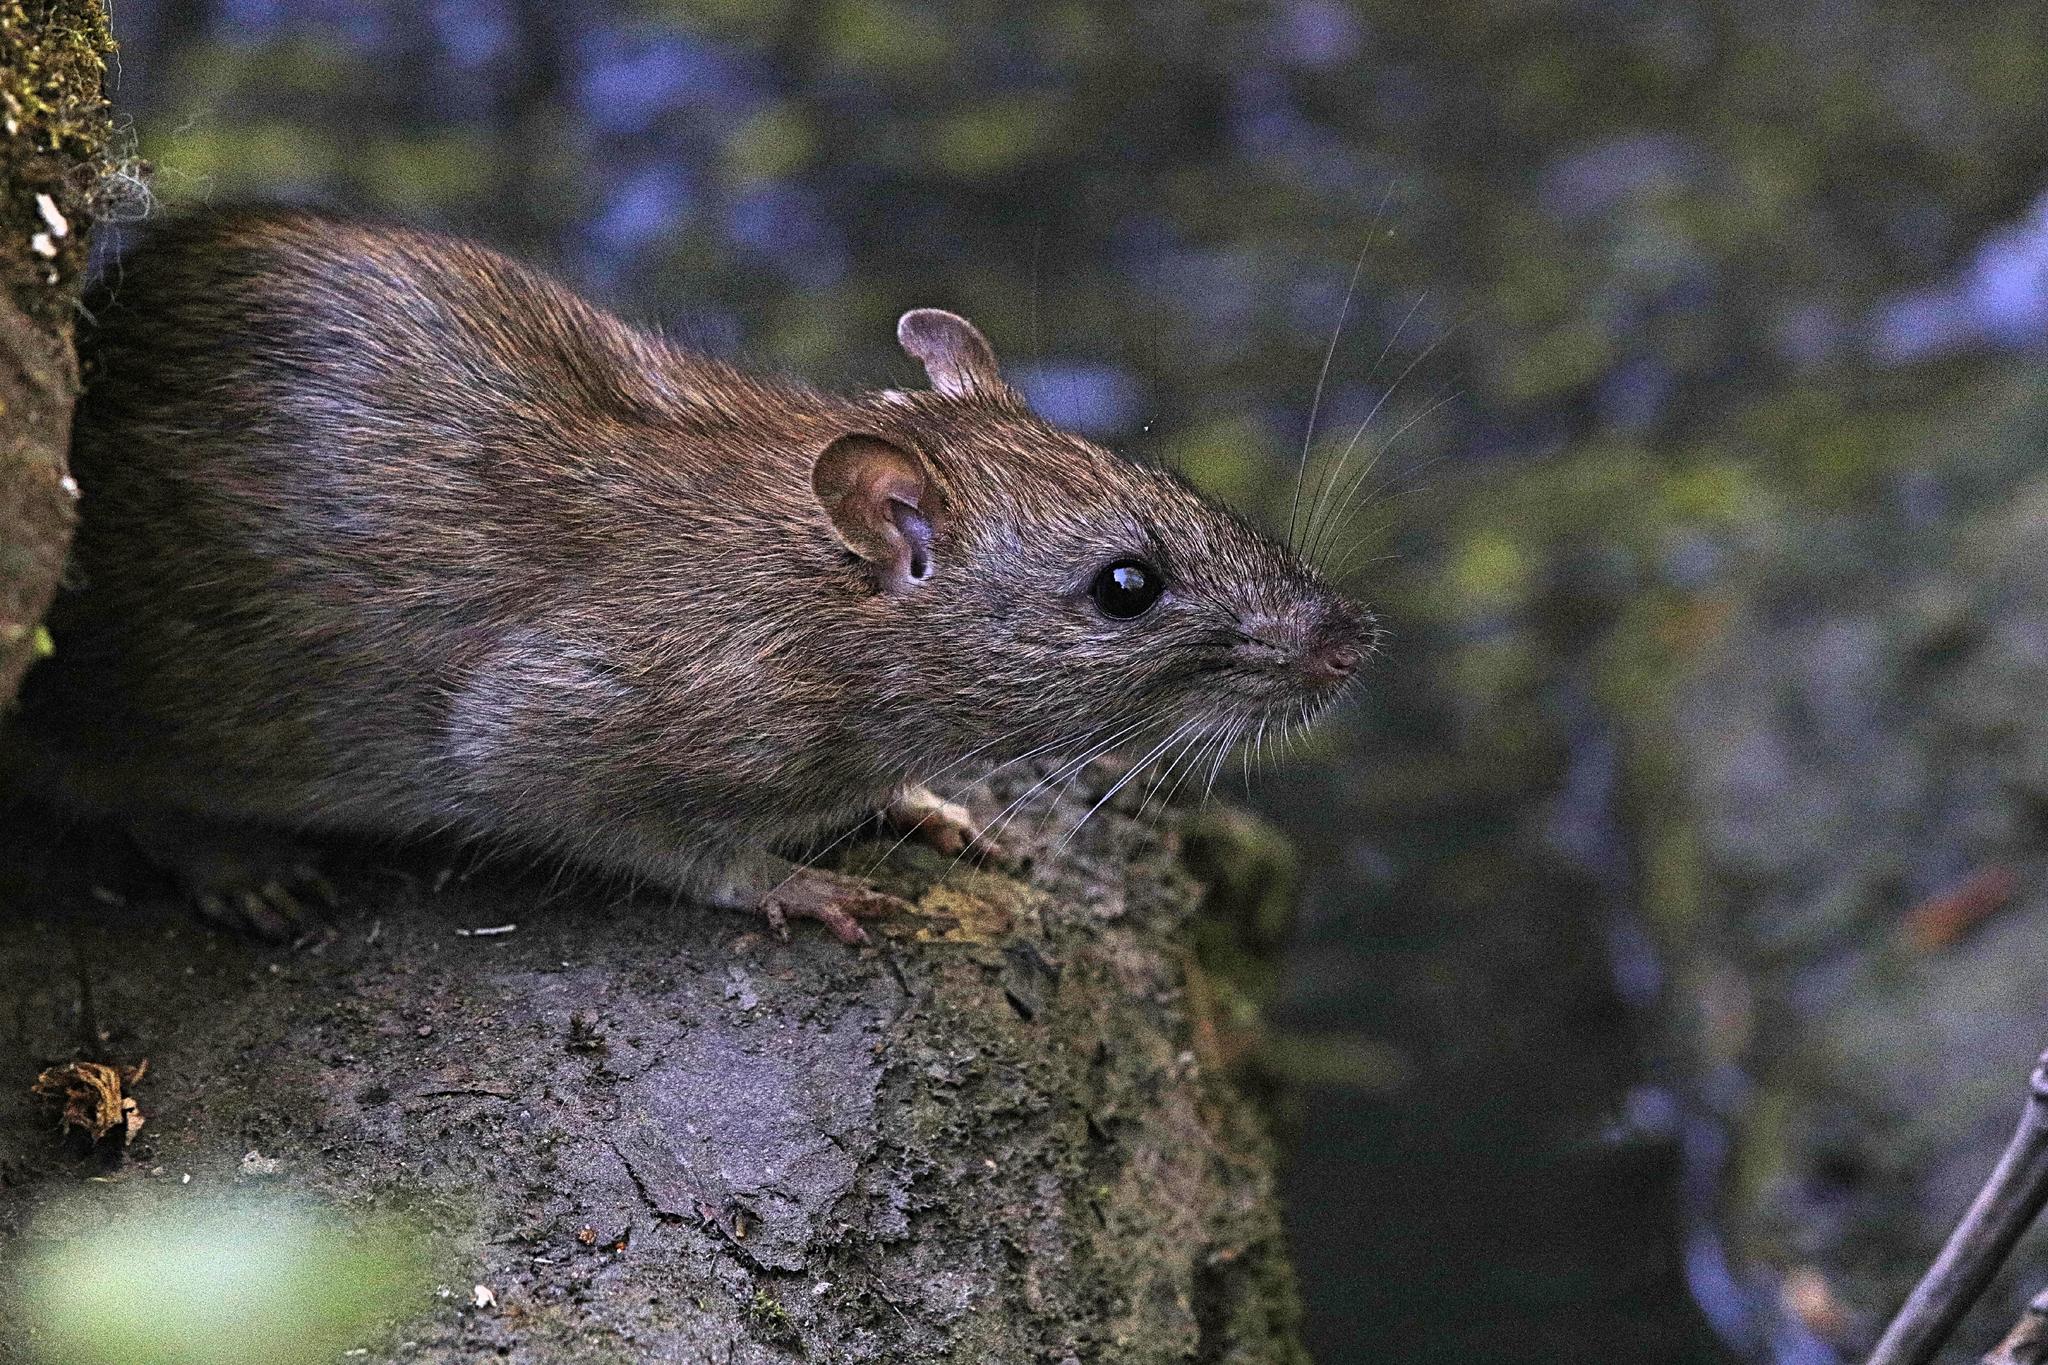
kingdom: Animalia
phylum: Chordata
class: Mammalia
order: Rodentia
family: Muridae
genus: Rattus
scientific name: Rattus norvegicus
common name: Brown rat
